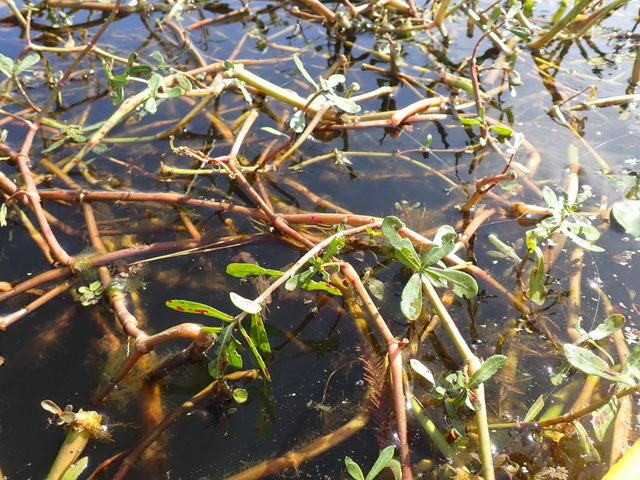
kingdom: Plantae
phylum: Tracheophyta
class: Magnoliopsida
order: Caryophyllales
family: Amaranthaceae
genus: Alternanthera
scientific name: Alternanthera philoxeroides
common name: Alligatorweed
